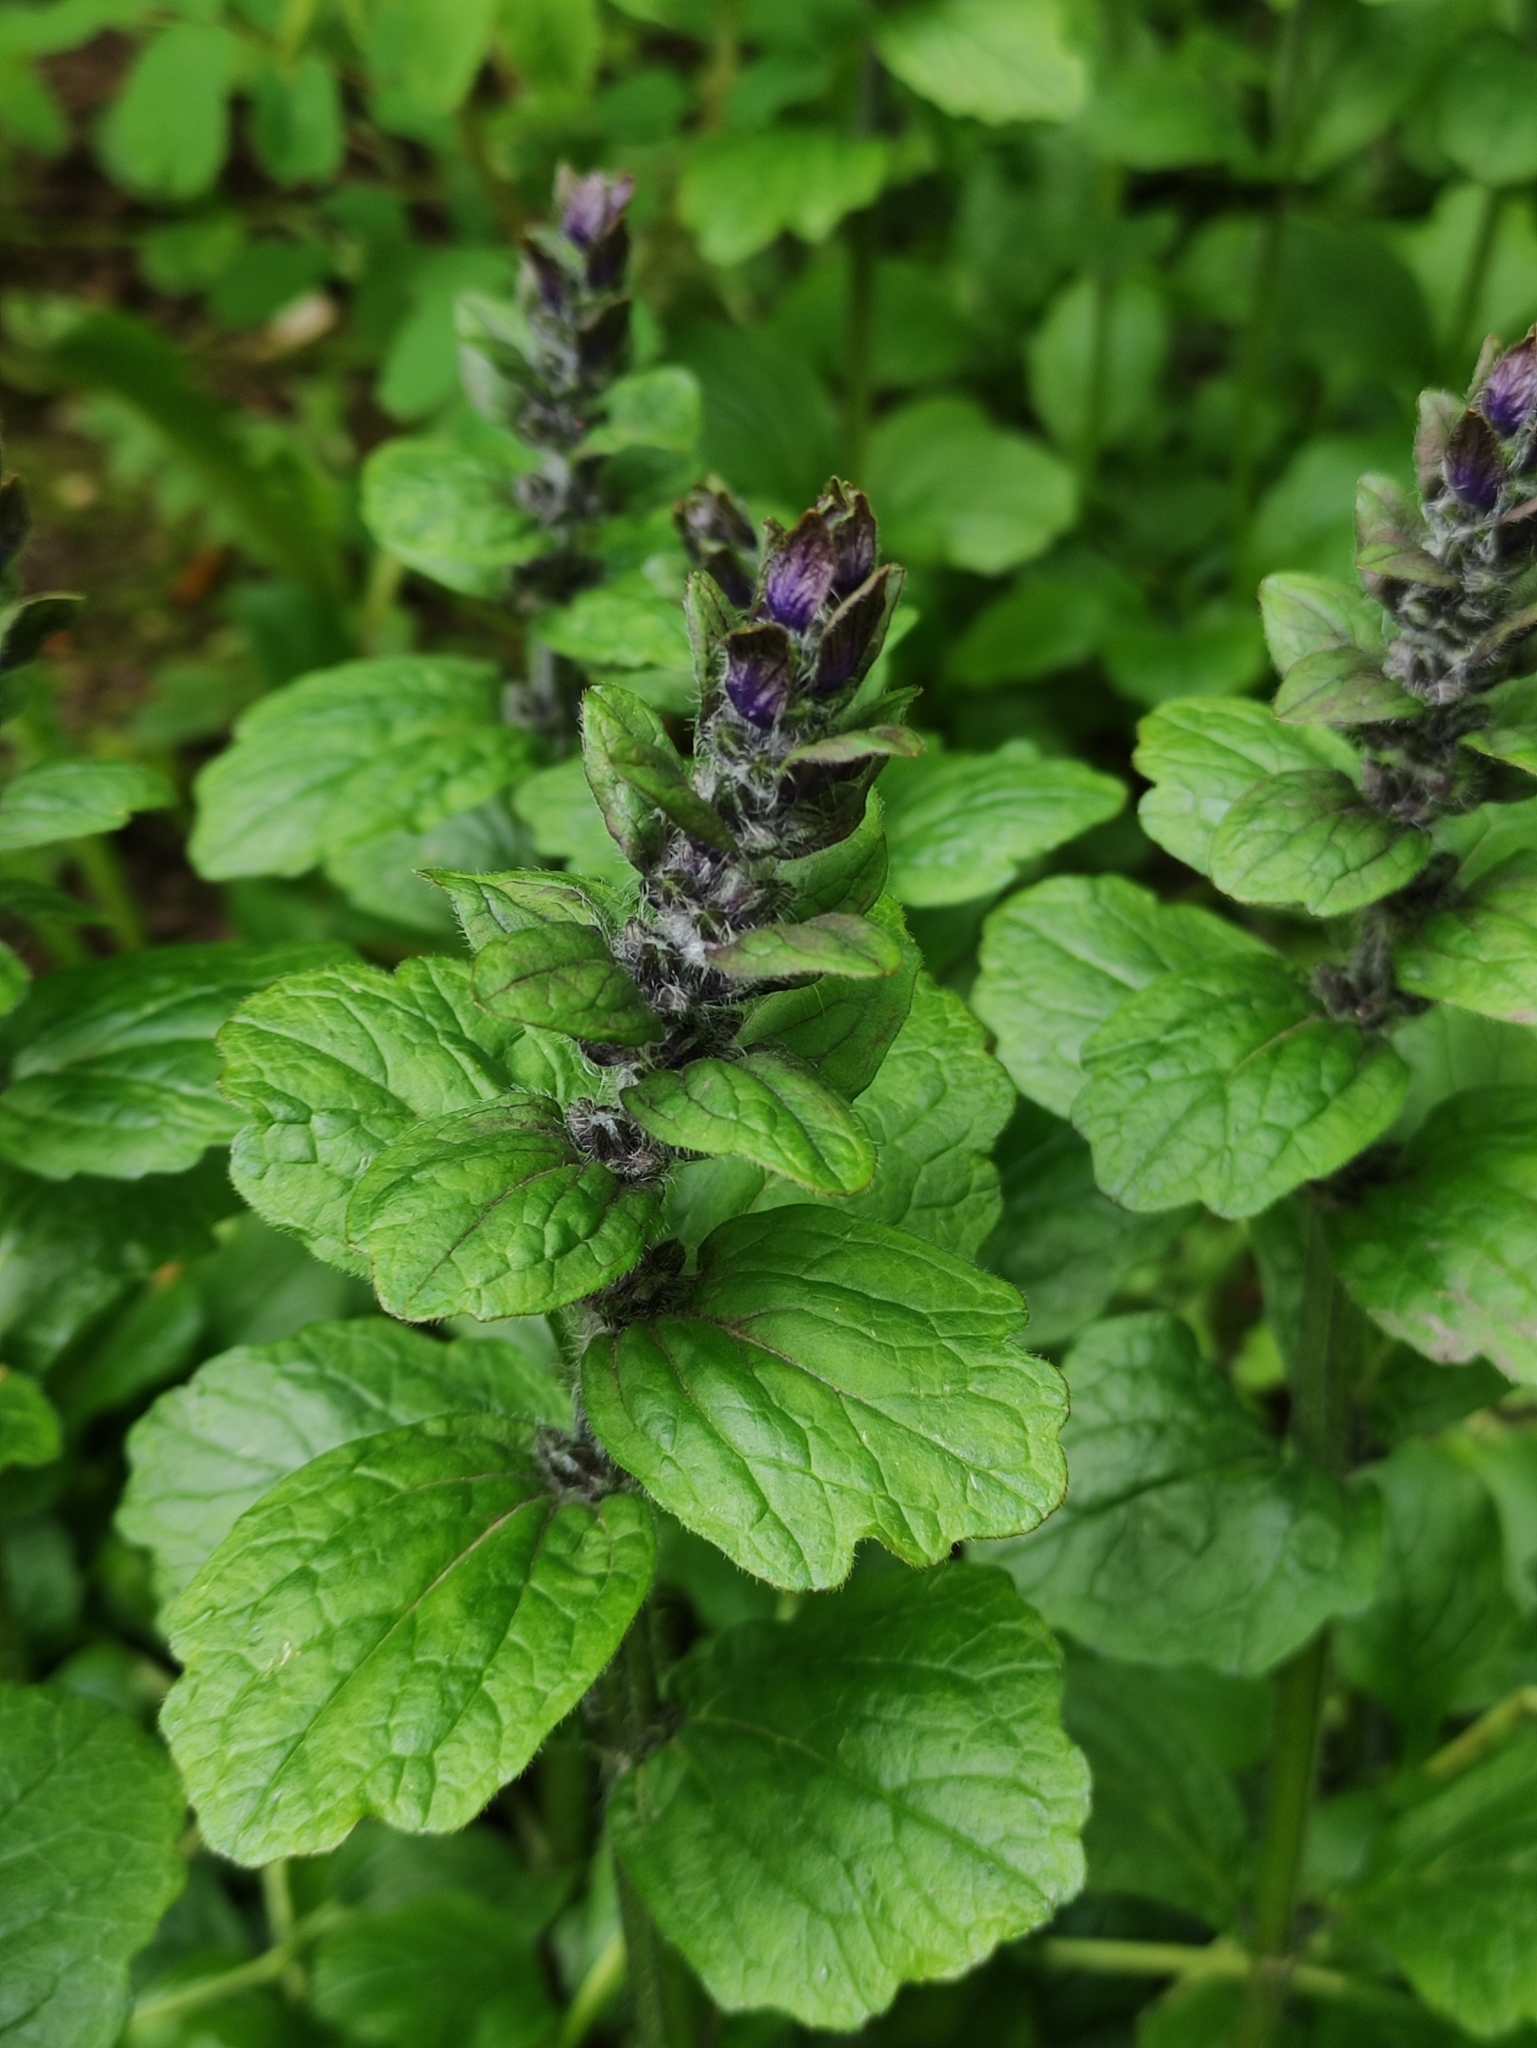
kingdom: Plantae
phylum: Tracheophyta
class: Magnoliopsida
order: Lamiales
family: Lamiaceae
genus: Ajuga
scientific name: Ajuga reptans
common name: Bugle
